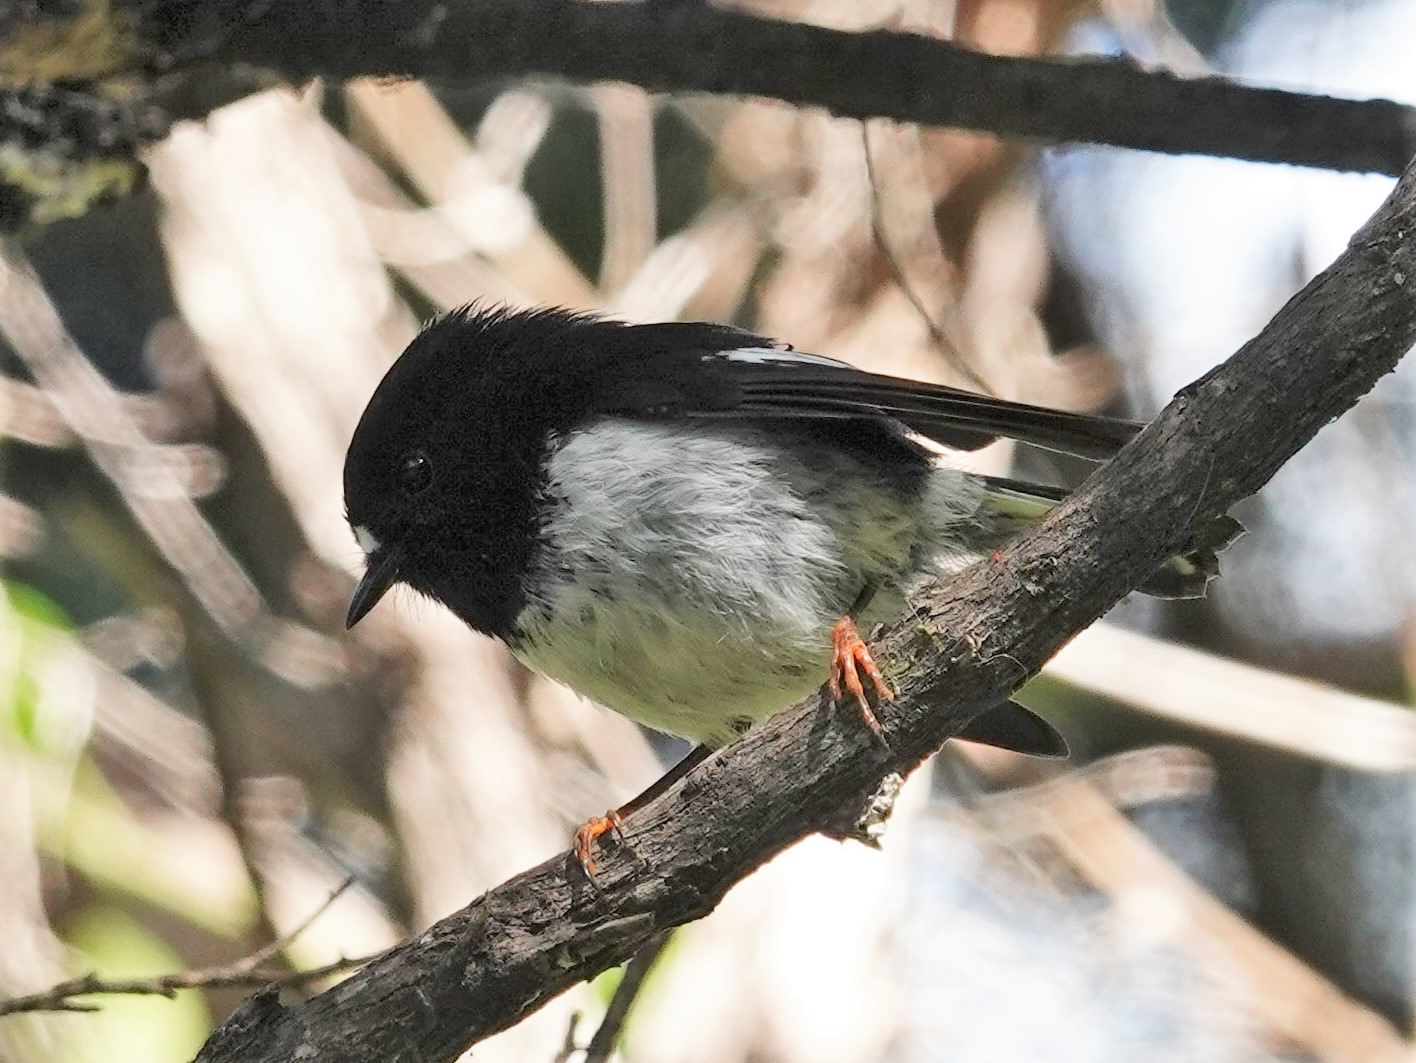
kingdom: Animalia
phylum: Chordata
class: Aves
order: Passeriformes
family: Petroicidae
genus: Petroica
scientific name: Petroica macrocephala
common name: Tomtit
